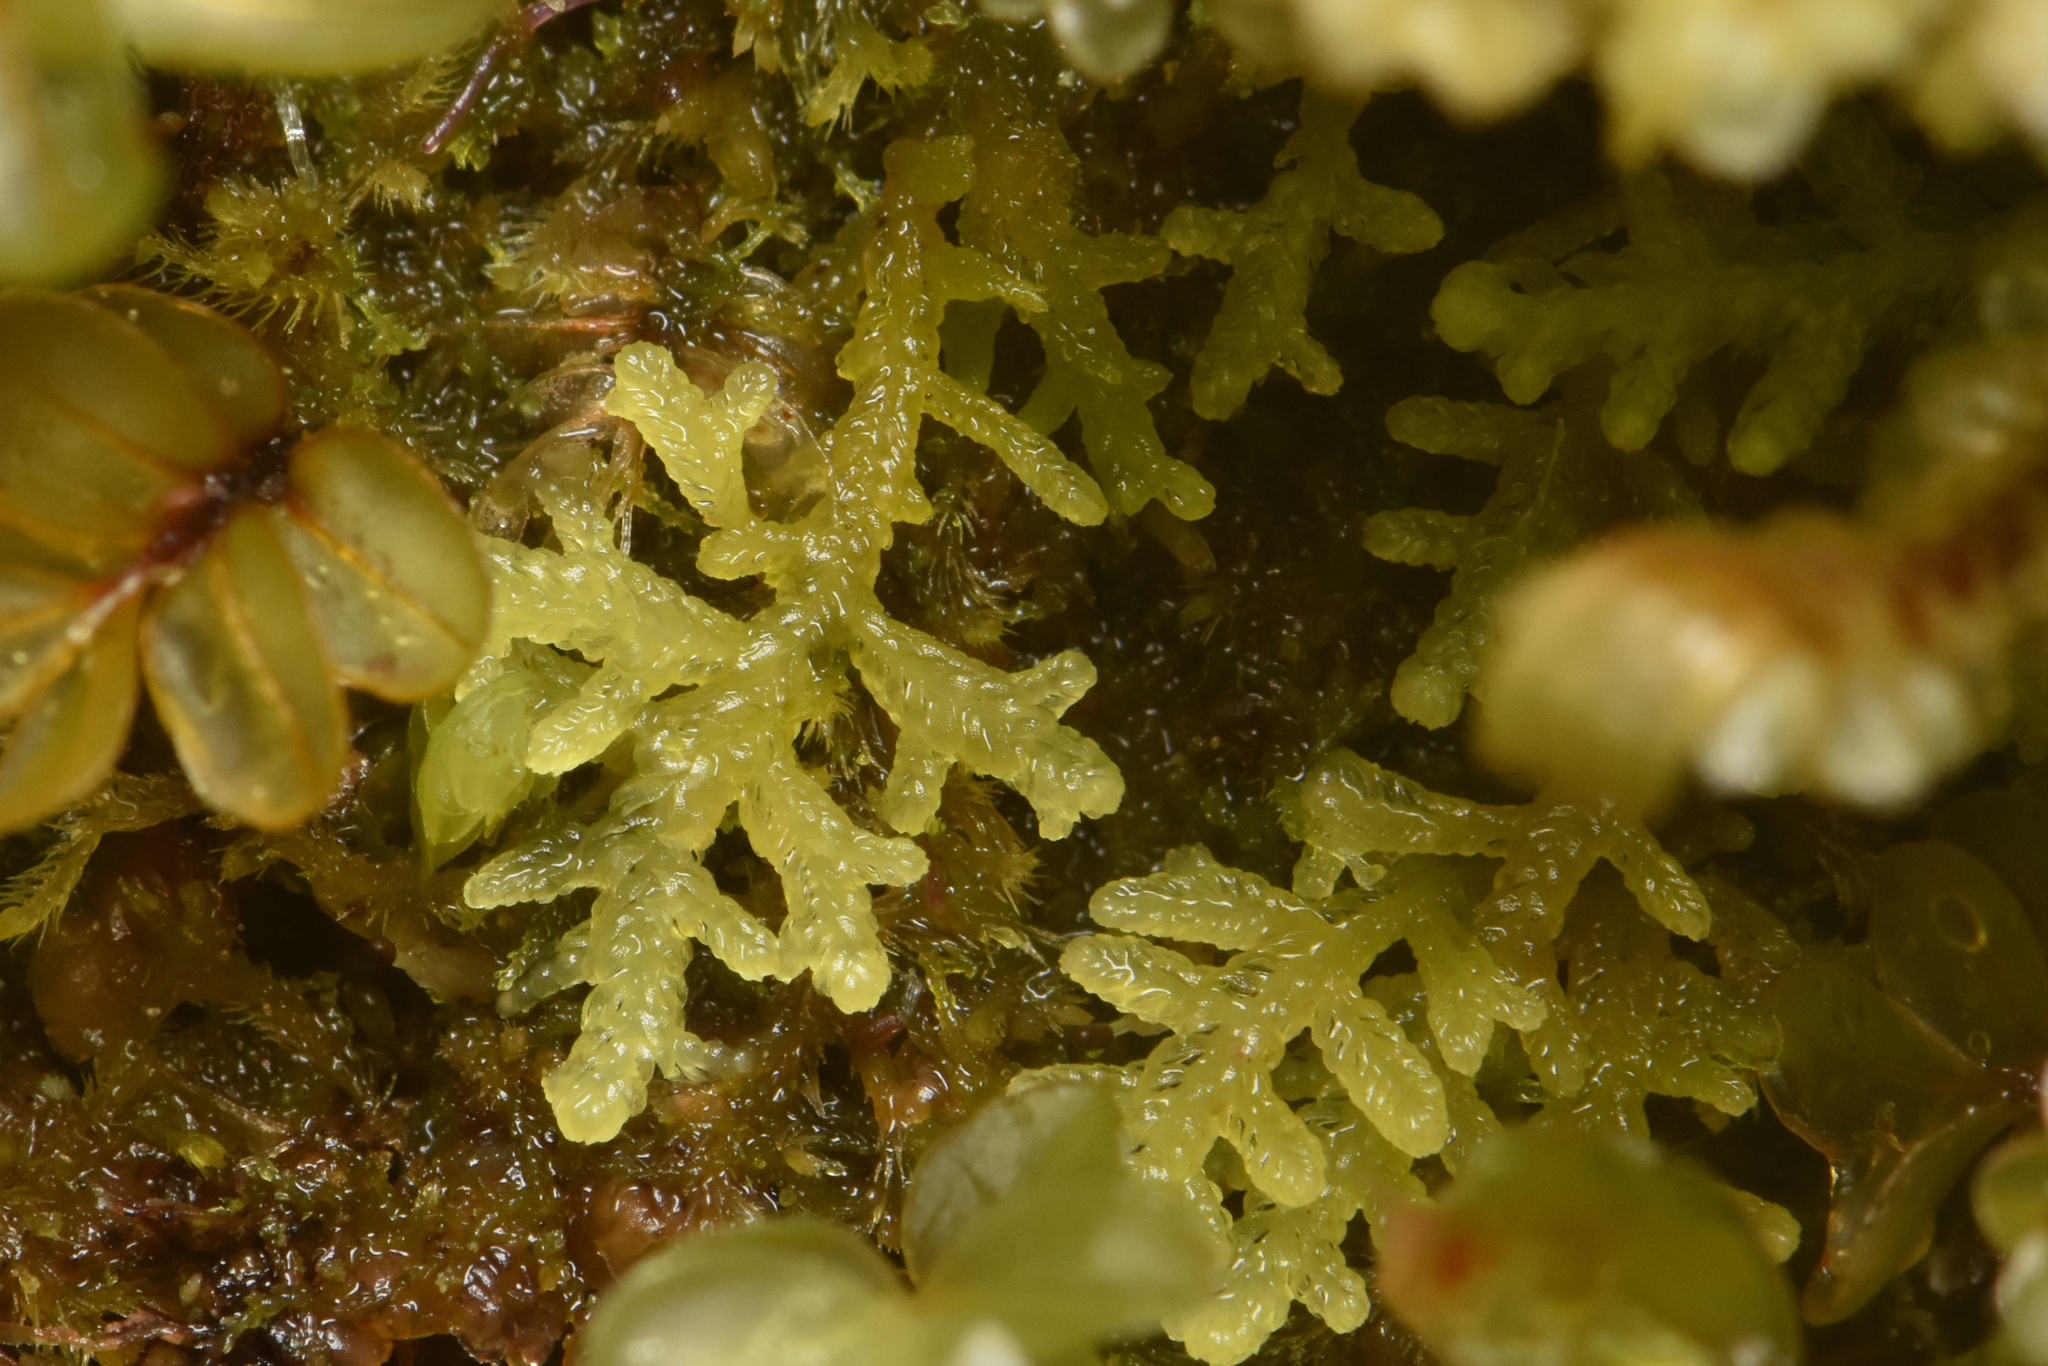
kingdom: Plantae
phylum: Marchantiophyta
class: Jungermanniopsida
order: Jungermanniales
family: Lepidoziaceae
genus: Lepidozia
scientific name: Lepidozia reptans
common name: Creeping fingerwort
